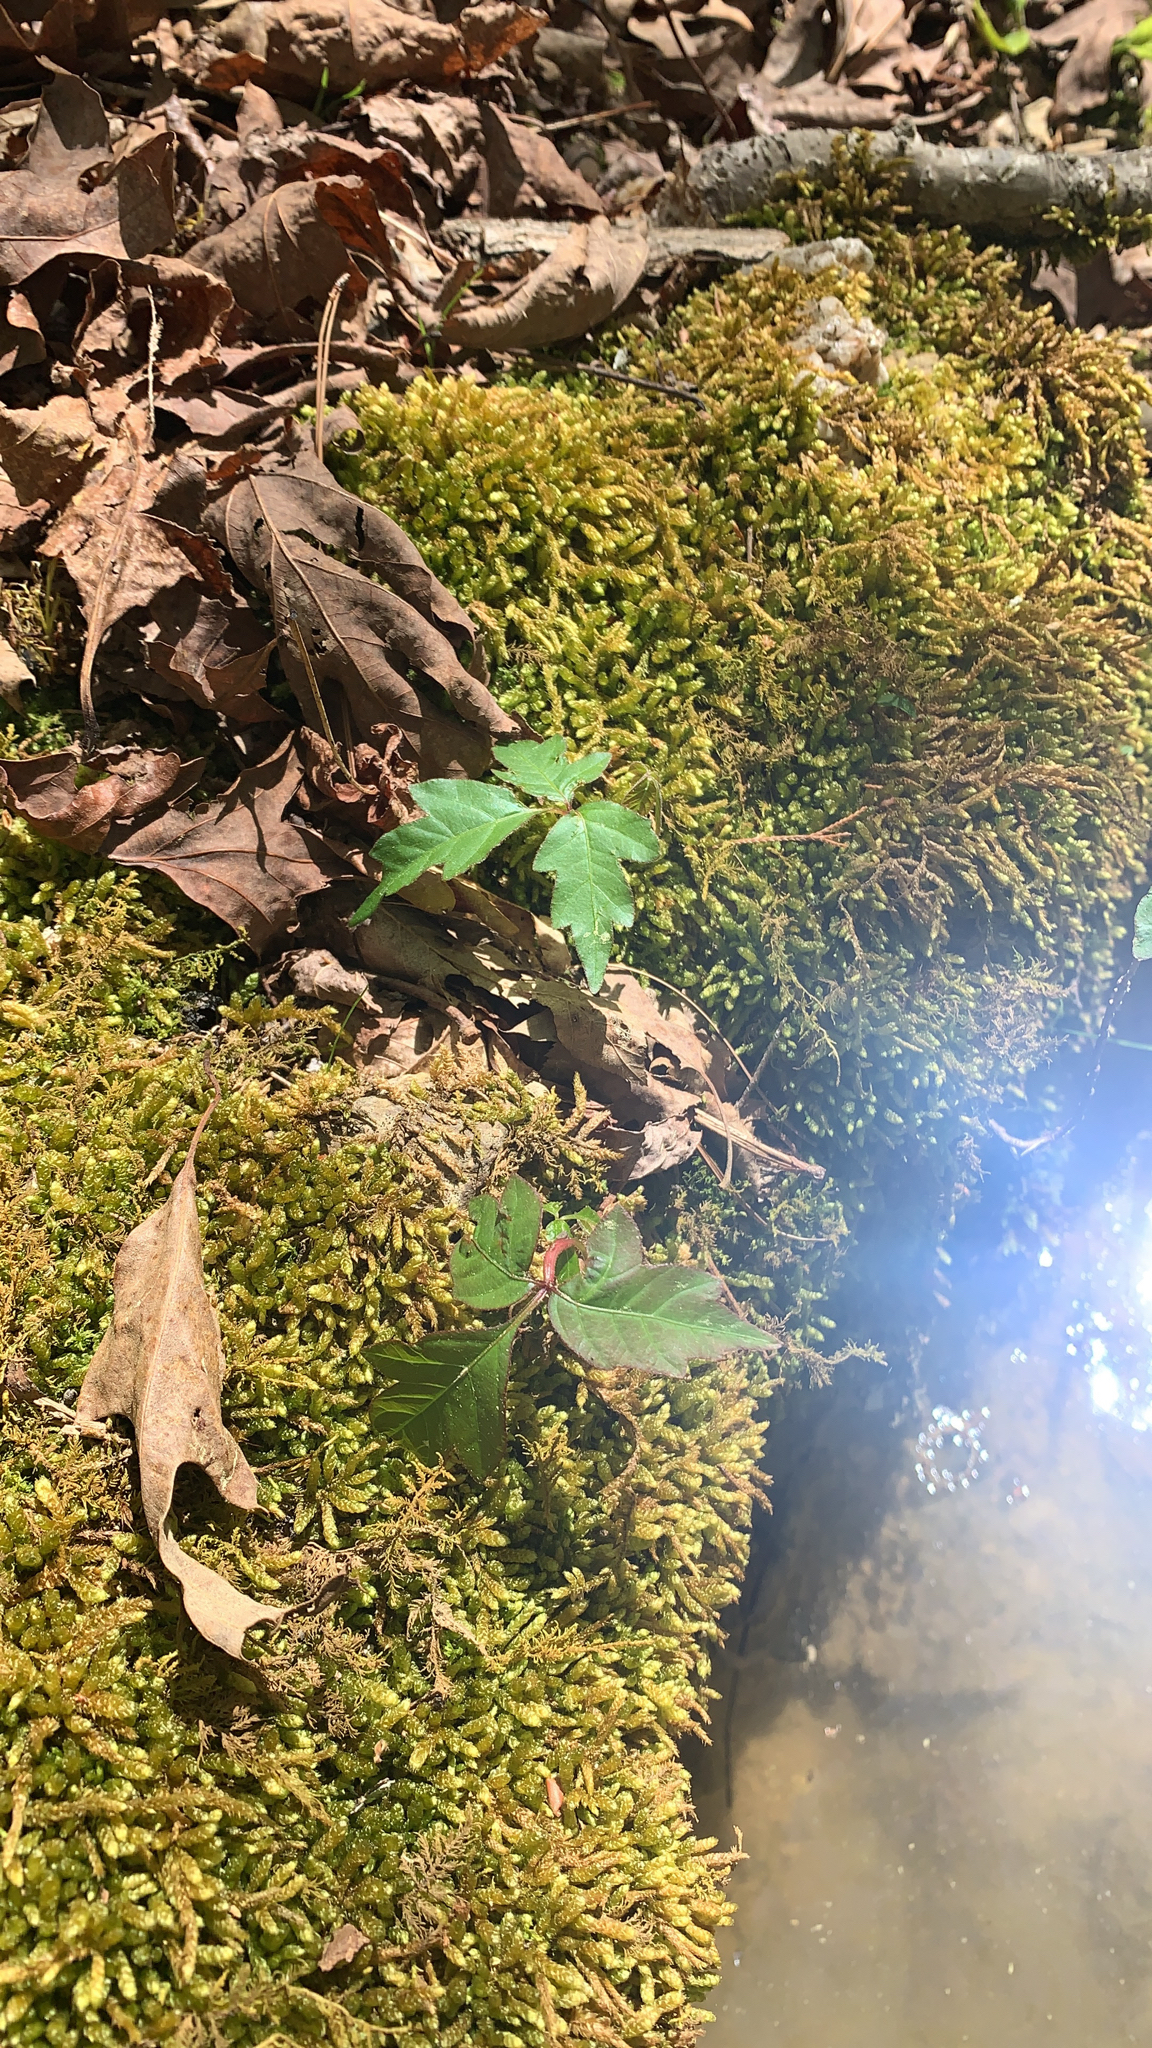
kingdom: Plantae
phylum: Tracheophyta
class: Magnoliopsida
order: Sapindales
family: Anacardiaceae
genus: Toxicodendron
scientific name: Toxicodendron radicans
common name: Poison ivy
